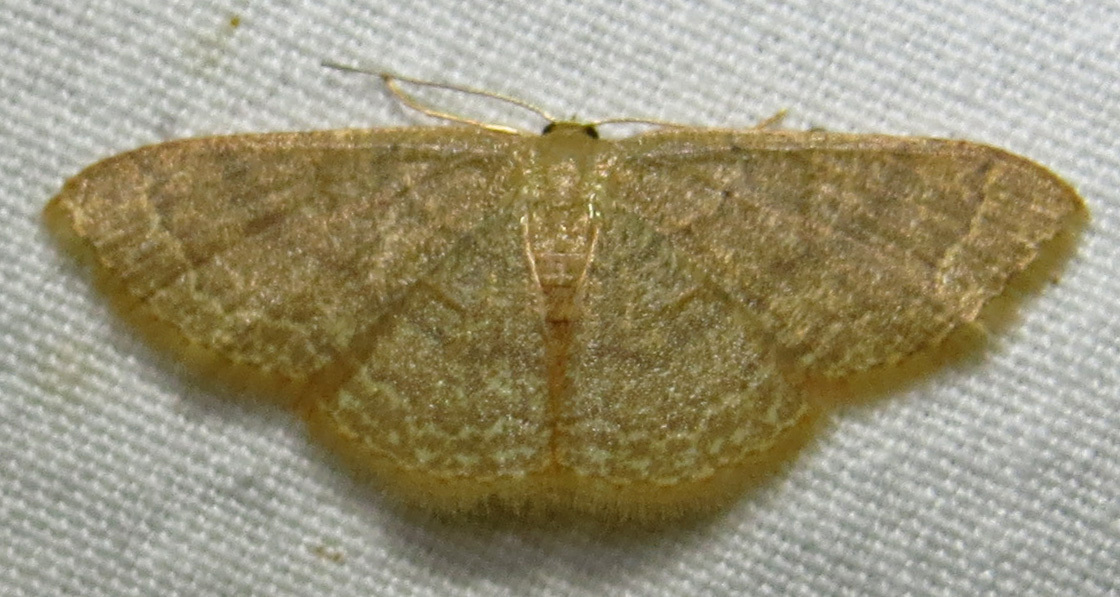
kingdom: Animalia
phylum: Arthropoda
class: Insecta
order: Lepidoptera
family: Geometridae
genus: Pleuroprucha
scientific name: Pleuroprucha insulsaria
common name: Common tan wave
